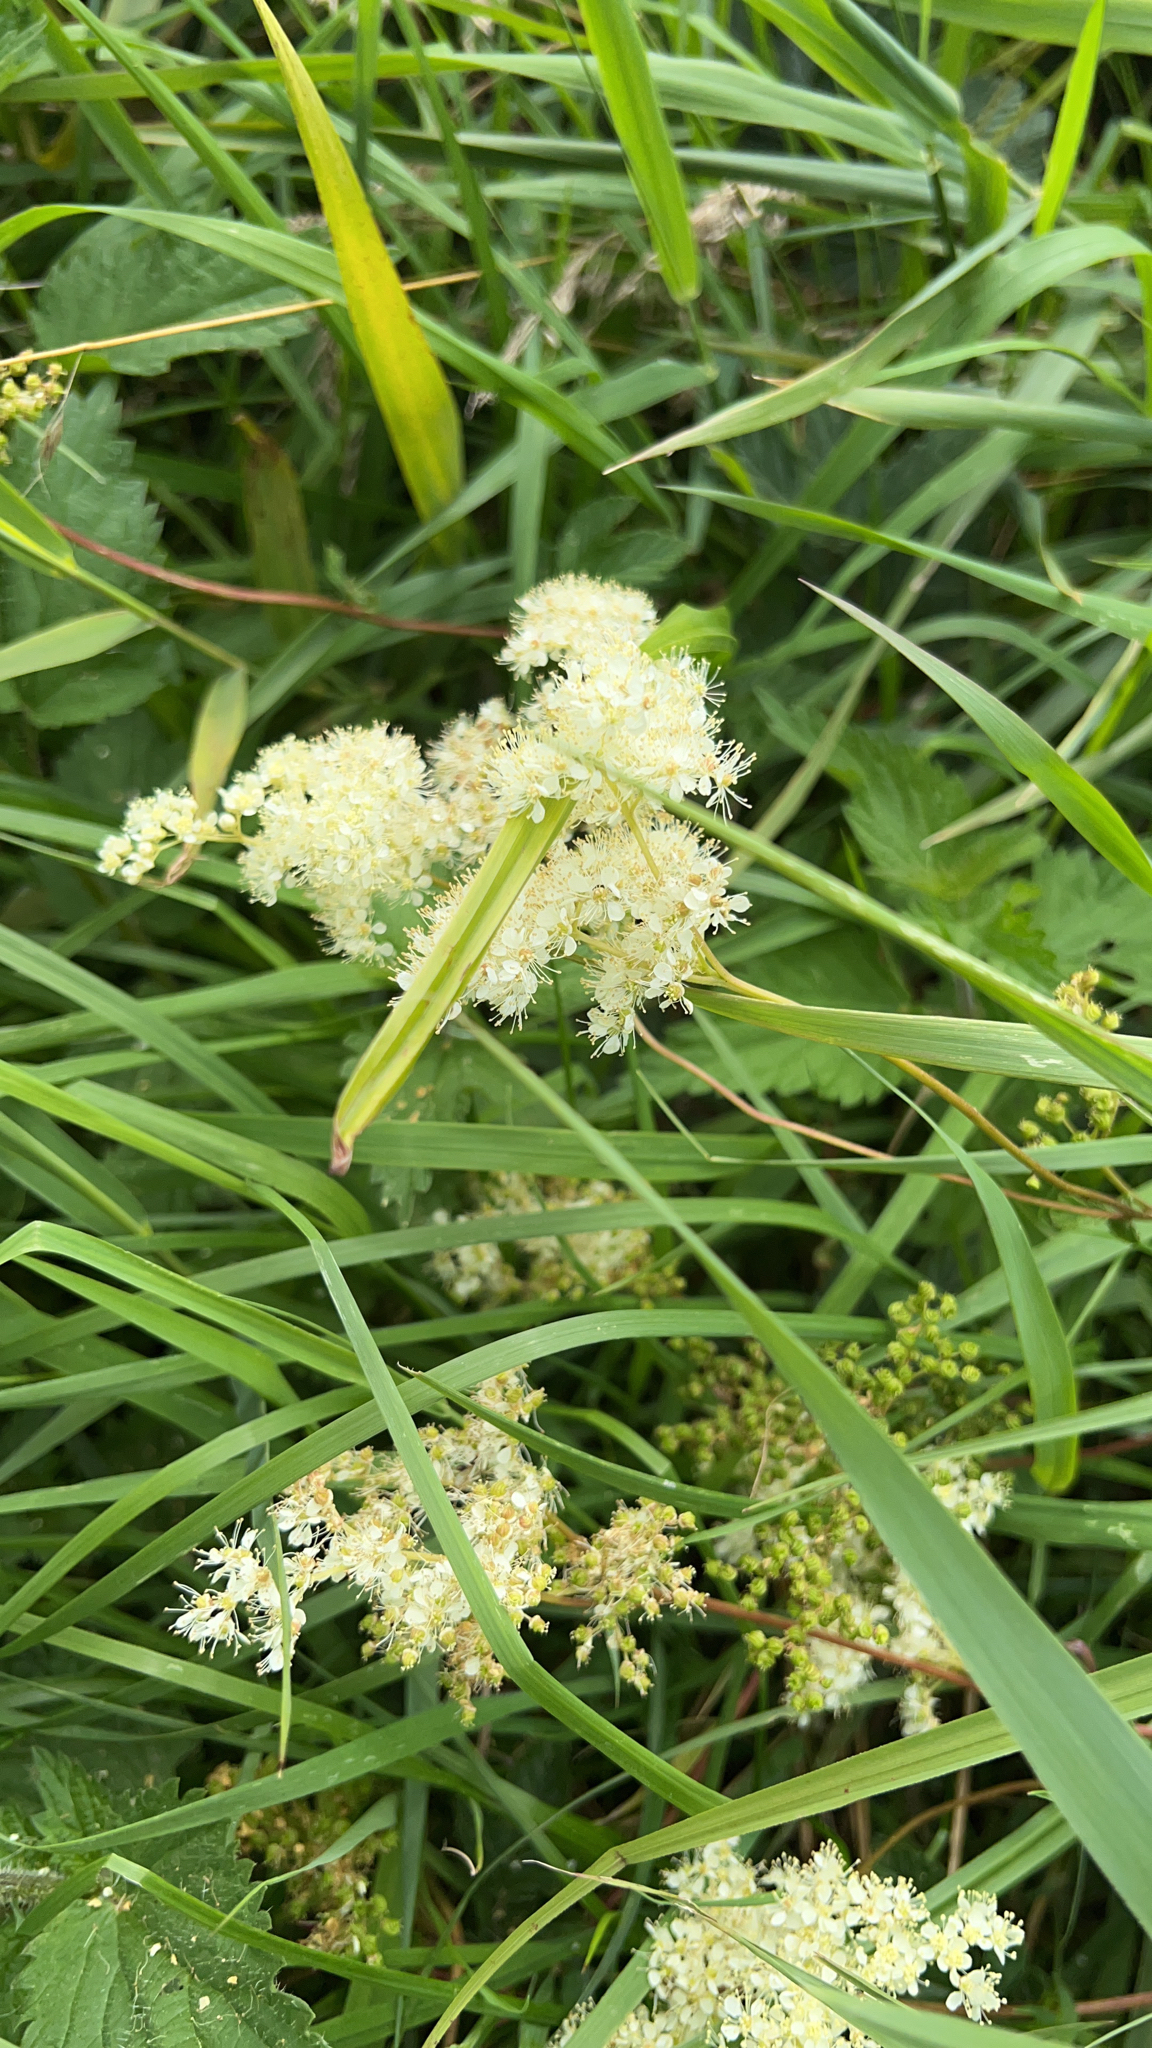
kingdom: Plantae
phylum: Tracheophyta
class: Magnoliopsida
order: Rosales
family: Rosaceae
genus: Filipendula
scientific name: Filipendula ulmaria
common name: Meadowsweet
